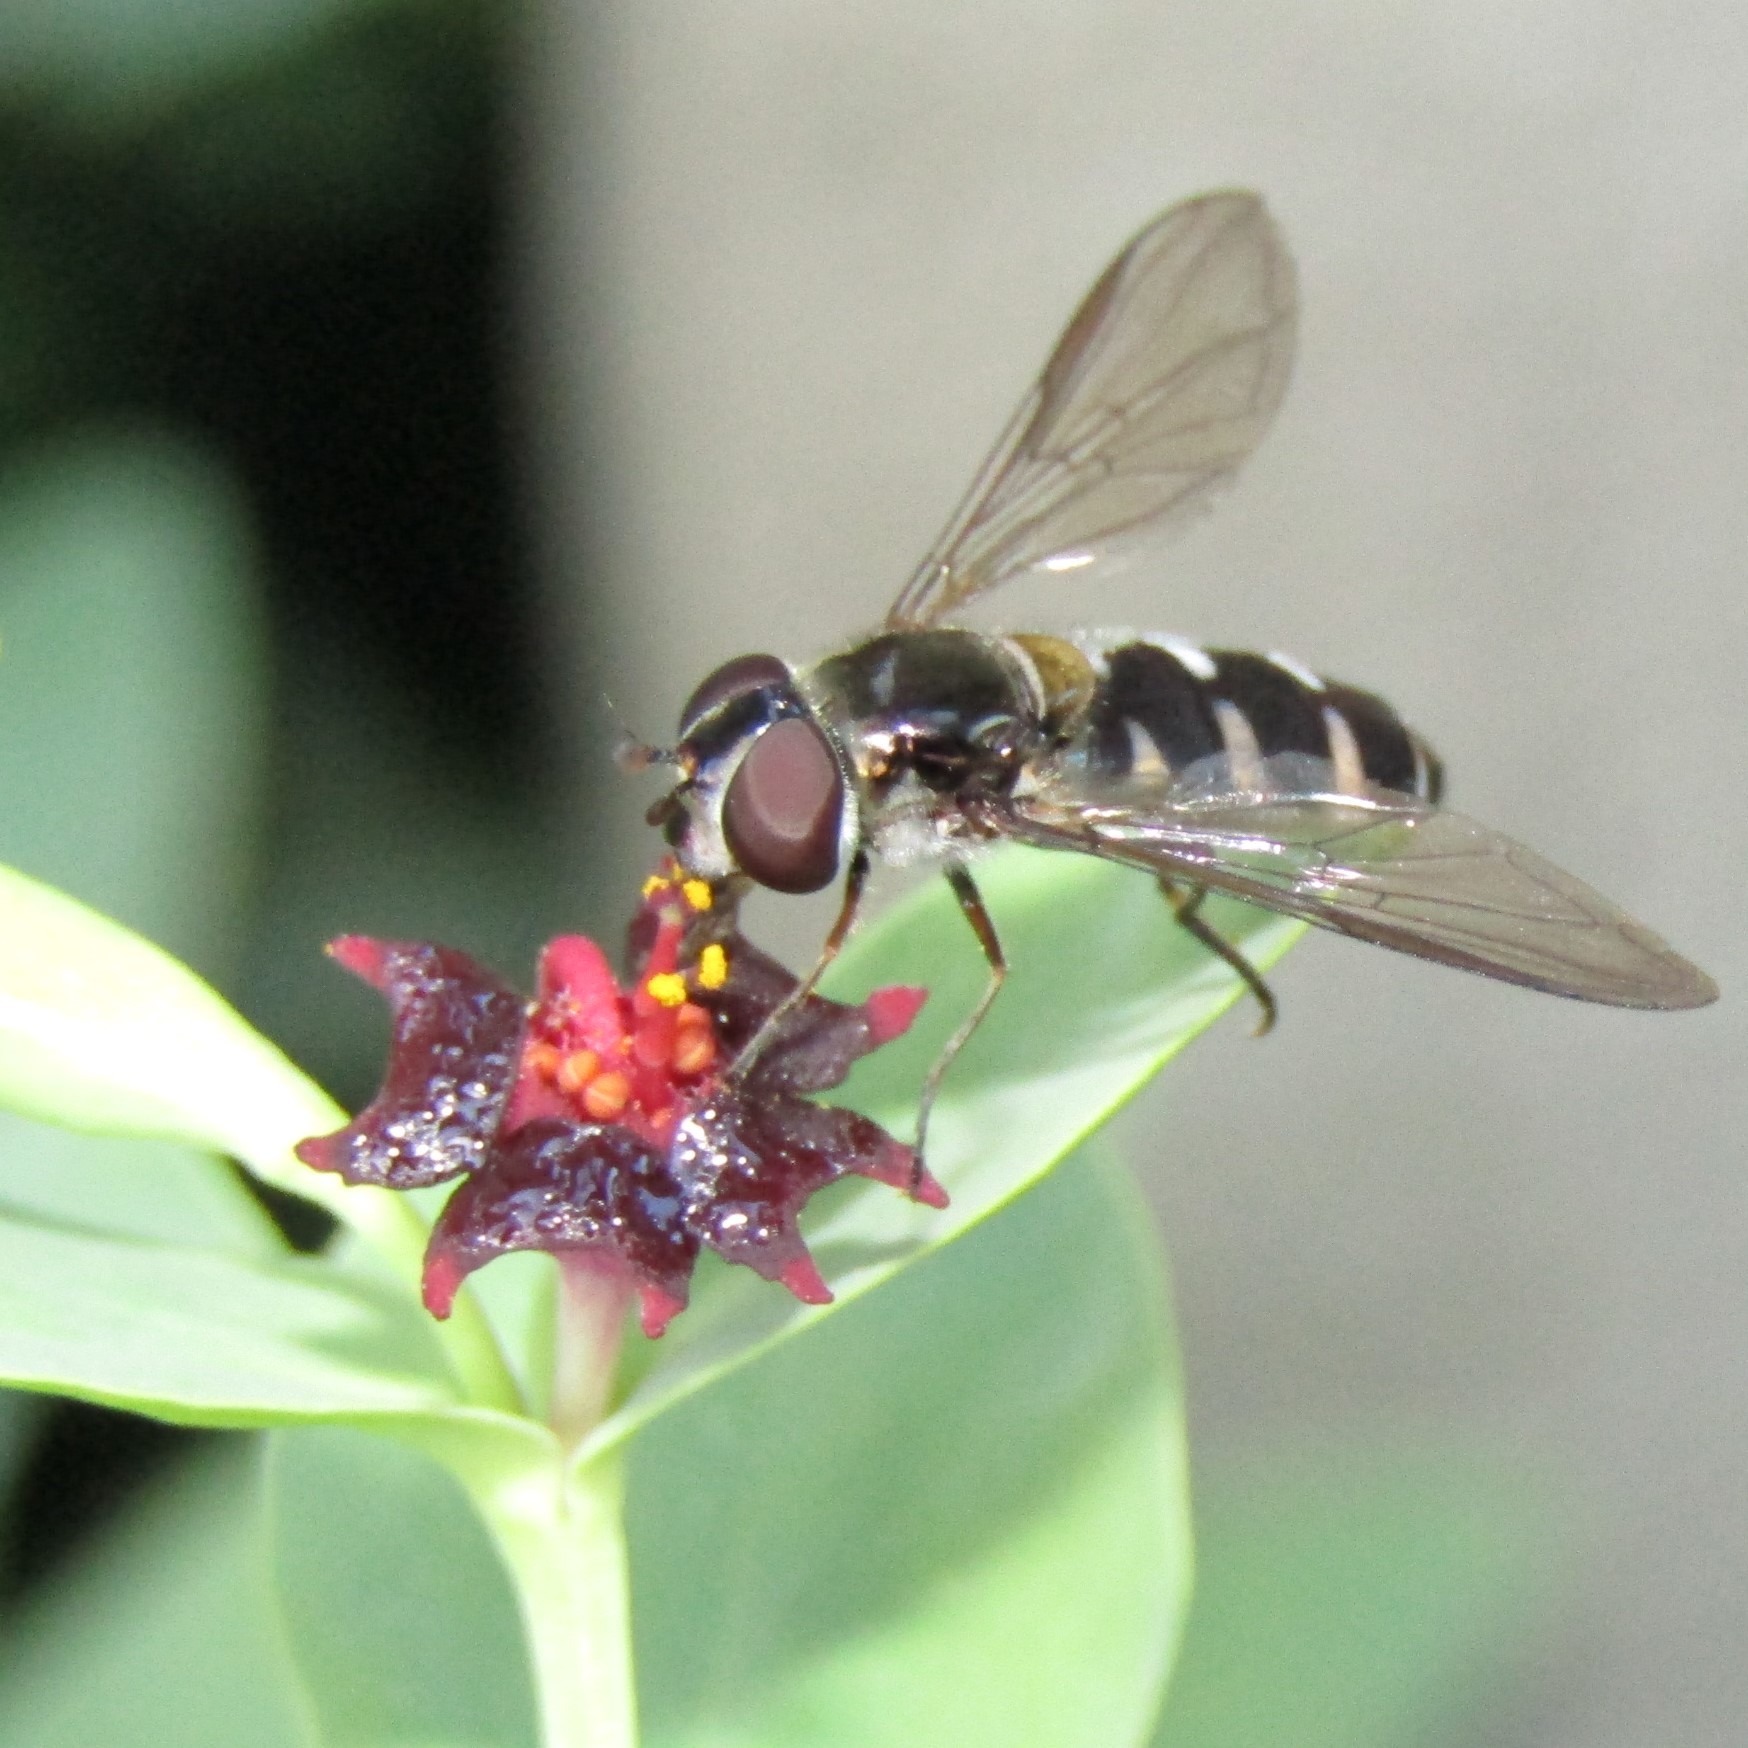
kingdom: Animalia
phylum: Arthropoda
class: Insecta
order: Diptera
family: Syrphidae
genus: Melangyna
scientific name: Melangyna novaezelandiae
